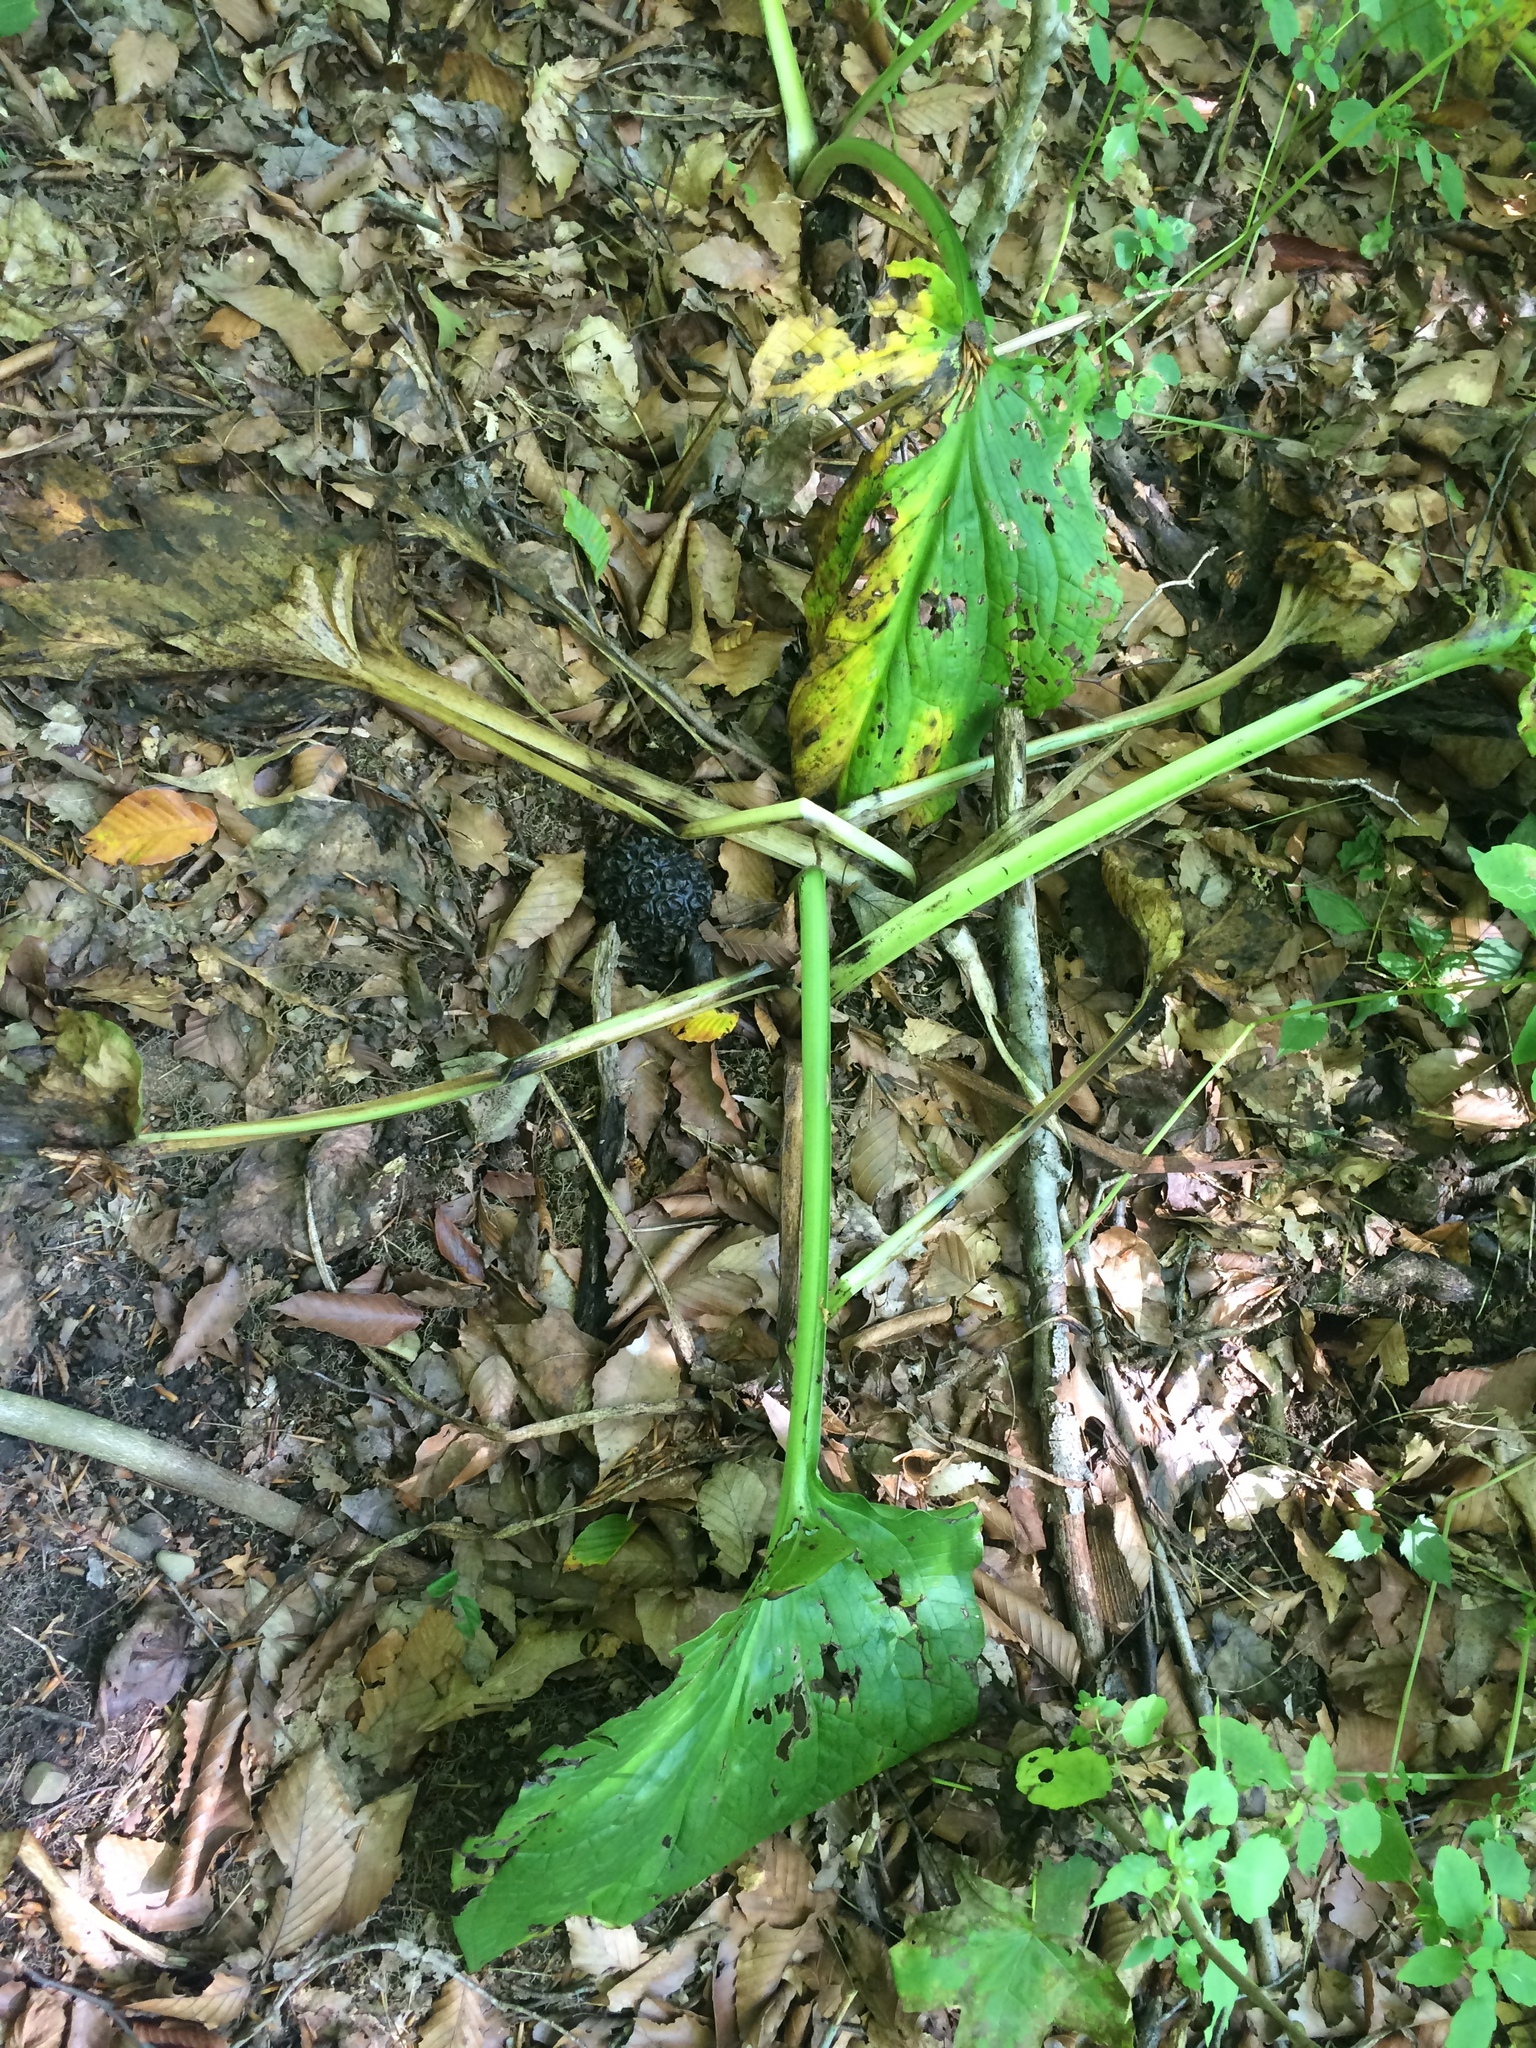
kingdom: Plantae
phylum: Tracheophyta
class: Liliopsida
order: Alismatales
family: Araceae
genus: Symplocarpus
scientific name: Symplocarpus foetidus
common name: Eastern skunk cabbage
